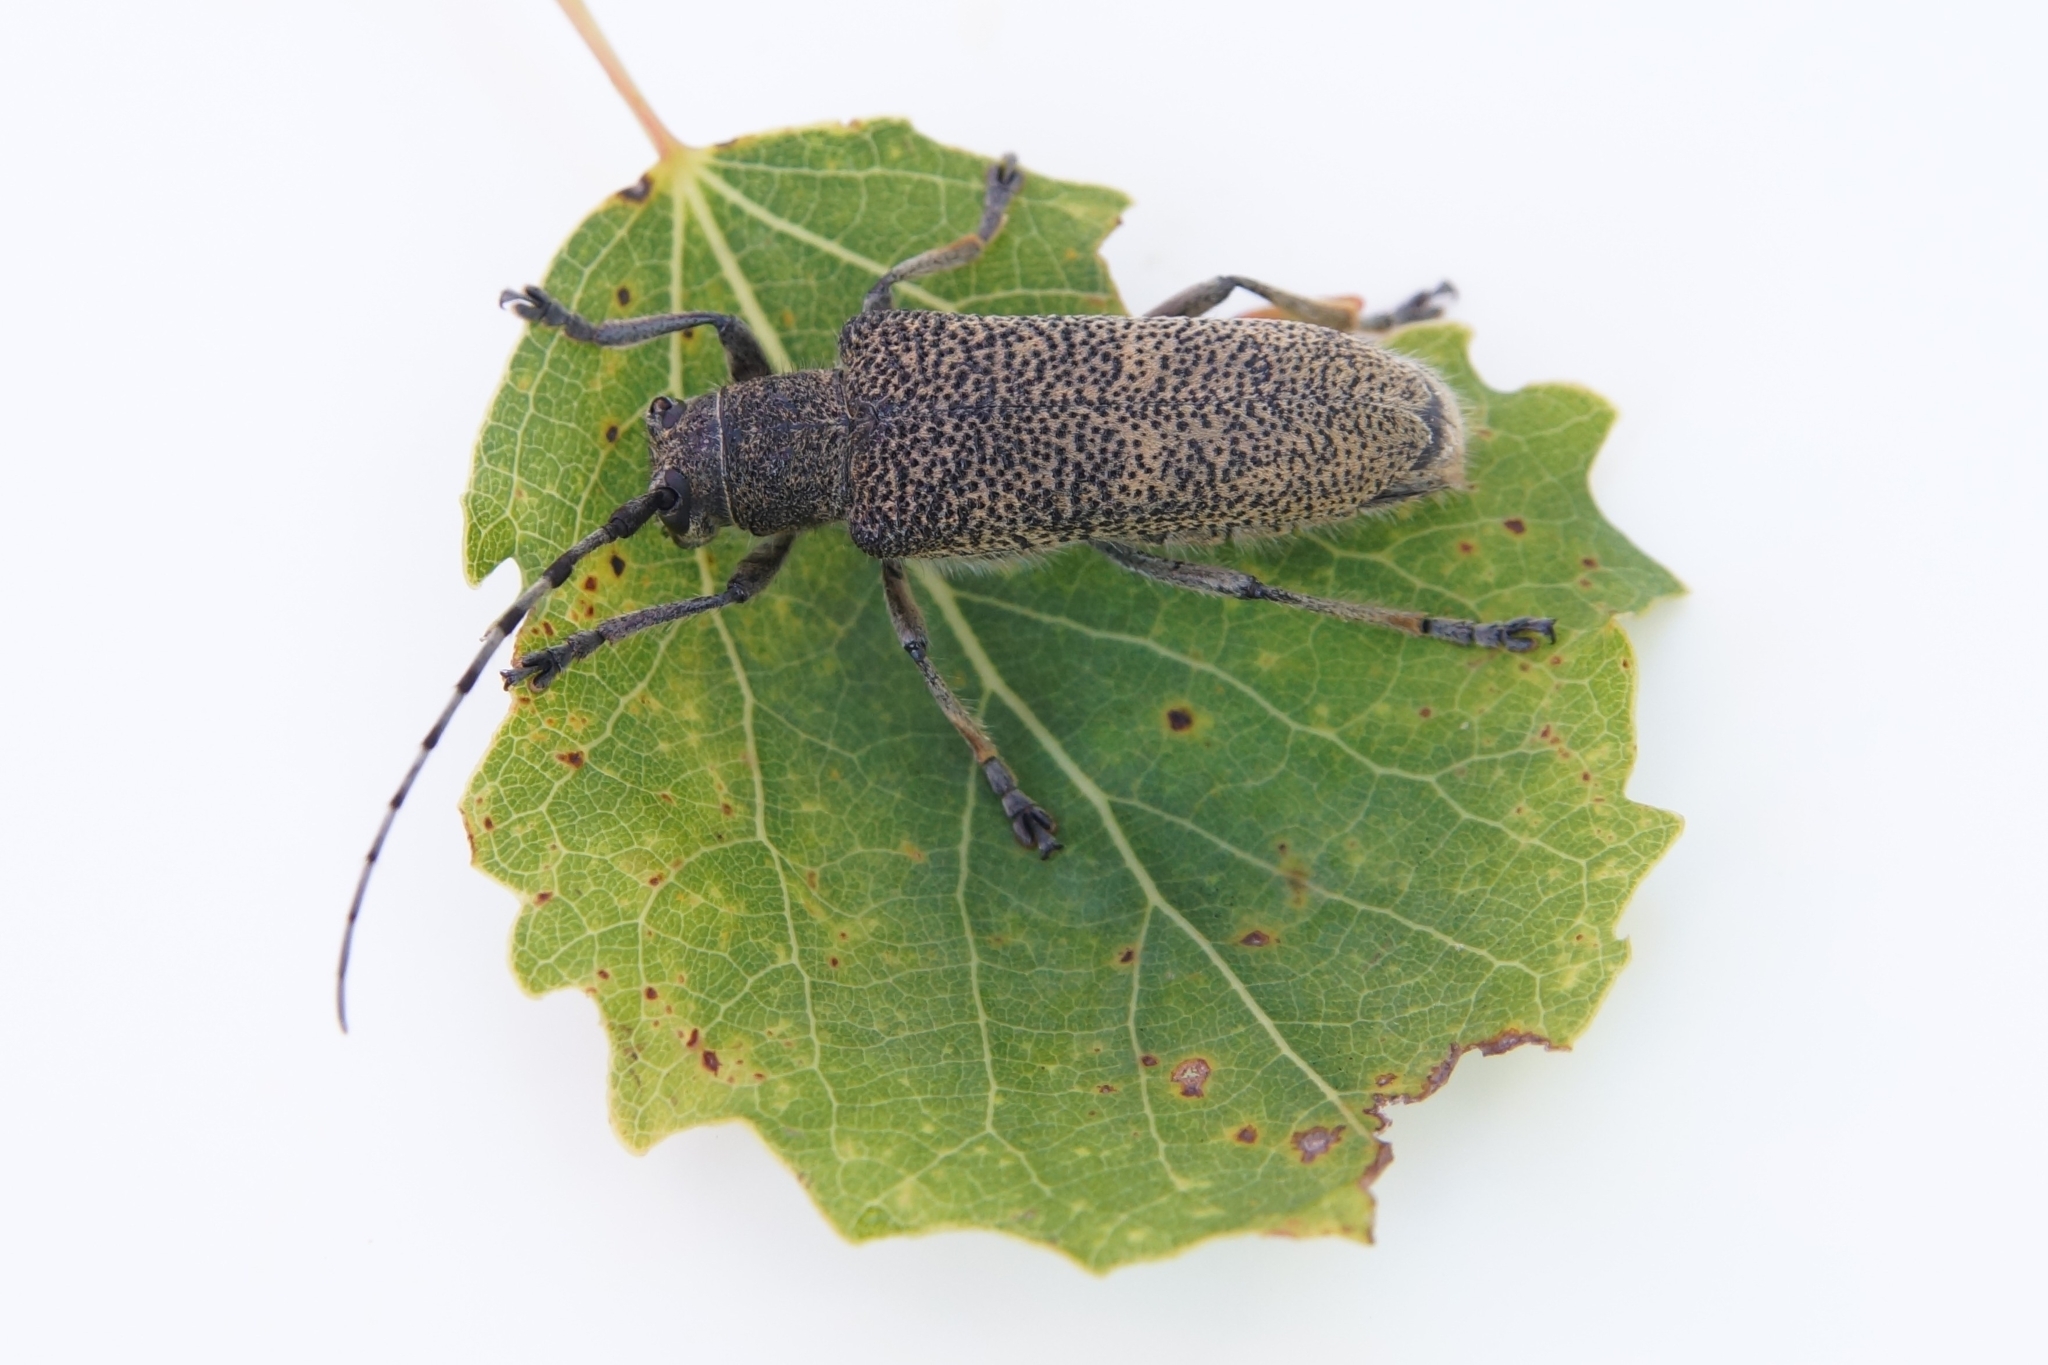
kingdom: Animalia
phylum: Arthropoda
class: Insecta
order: Coleoptera
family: Cerambycidae
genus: Saperda
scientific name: Saperda carcharias
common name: Poplar borer
